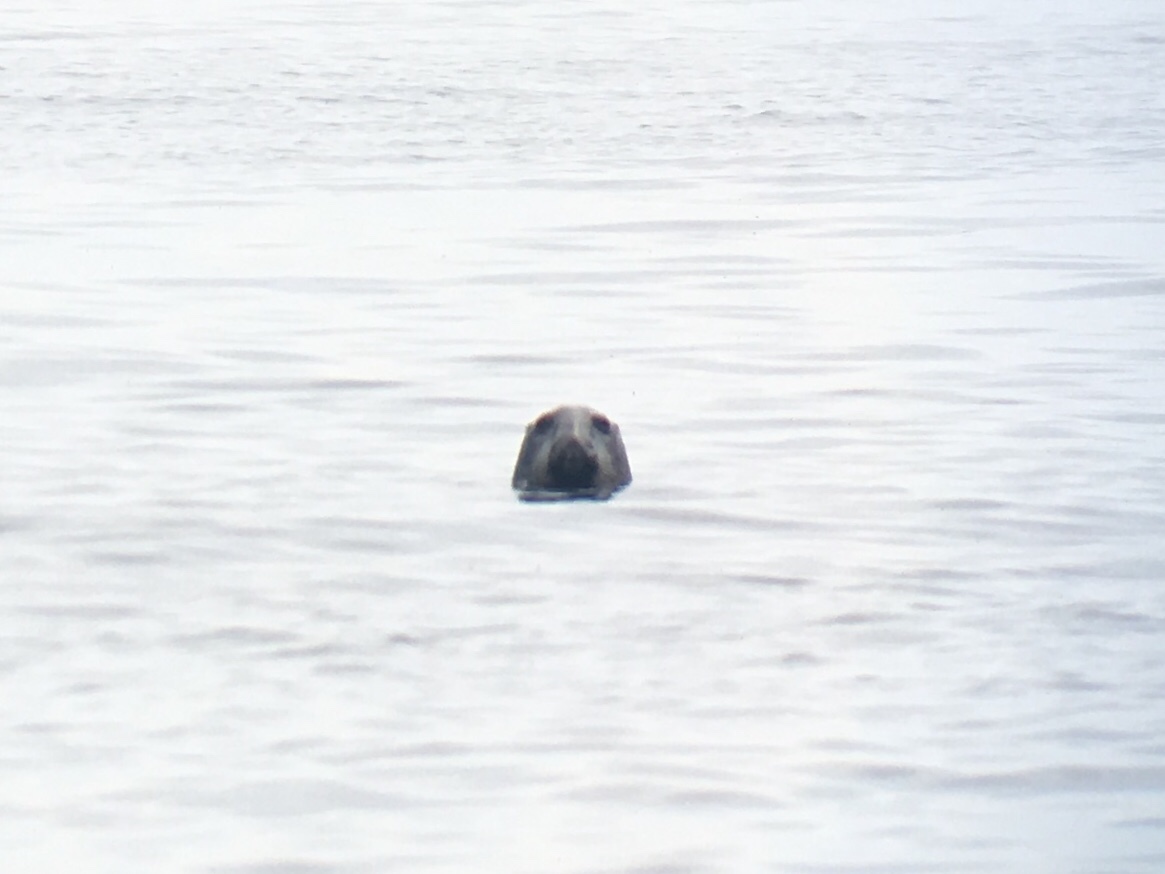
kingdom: Animalia
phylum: Chordata
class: Mammalia
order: Carnivora
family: Phocidae
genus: Halichoerus
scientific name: Halichoerus grypus
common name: Grey seal
